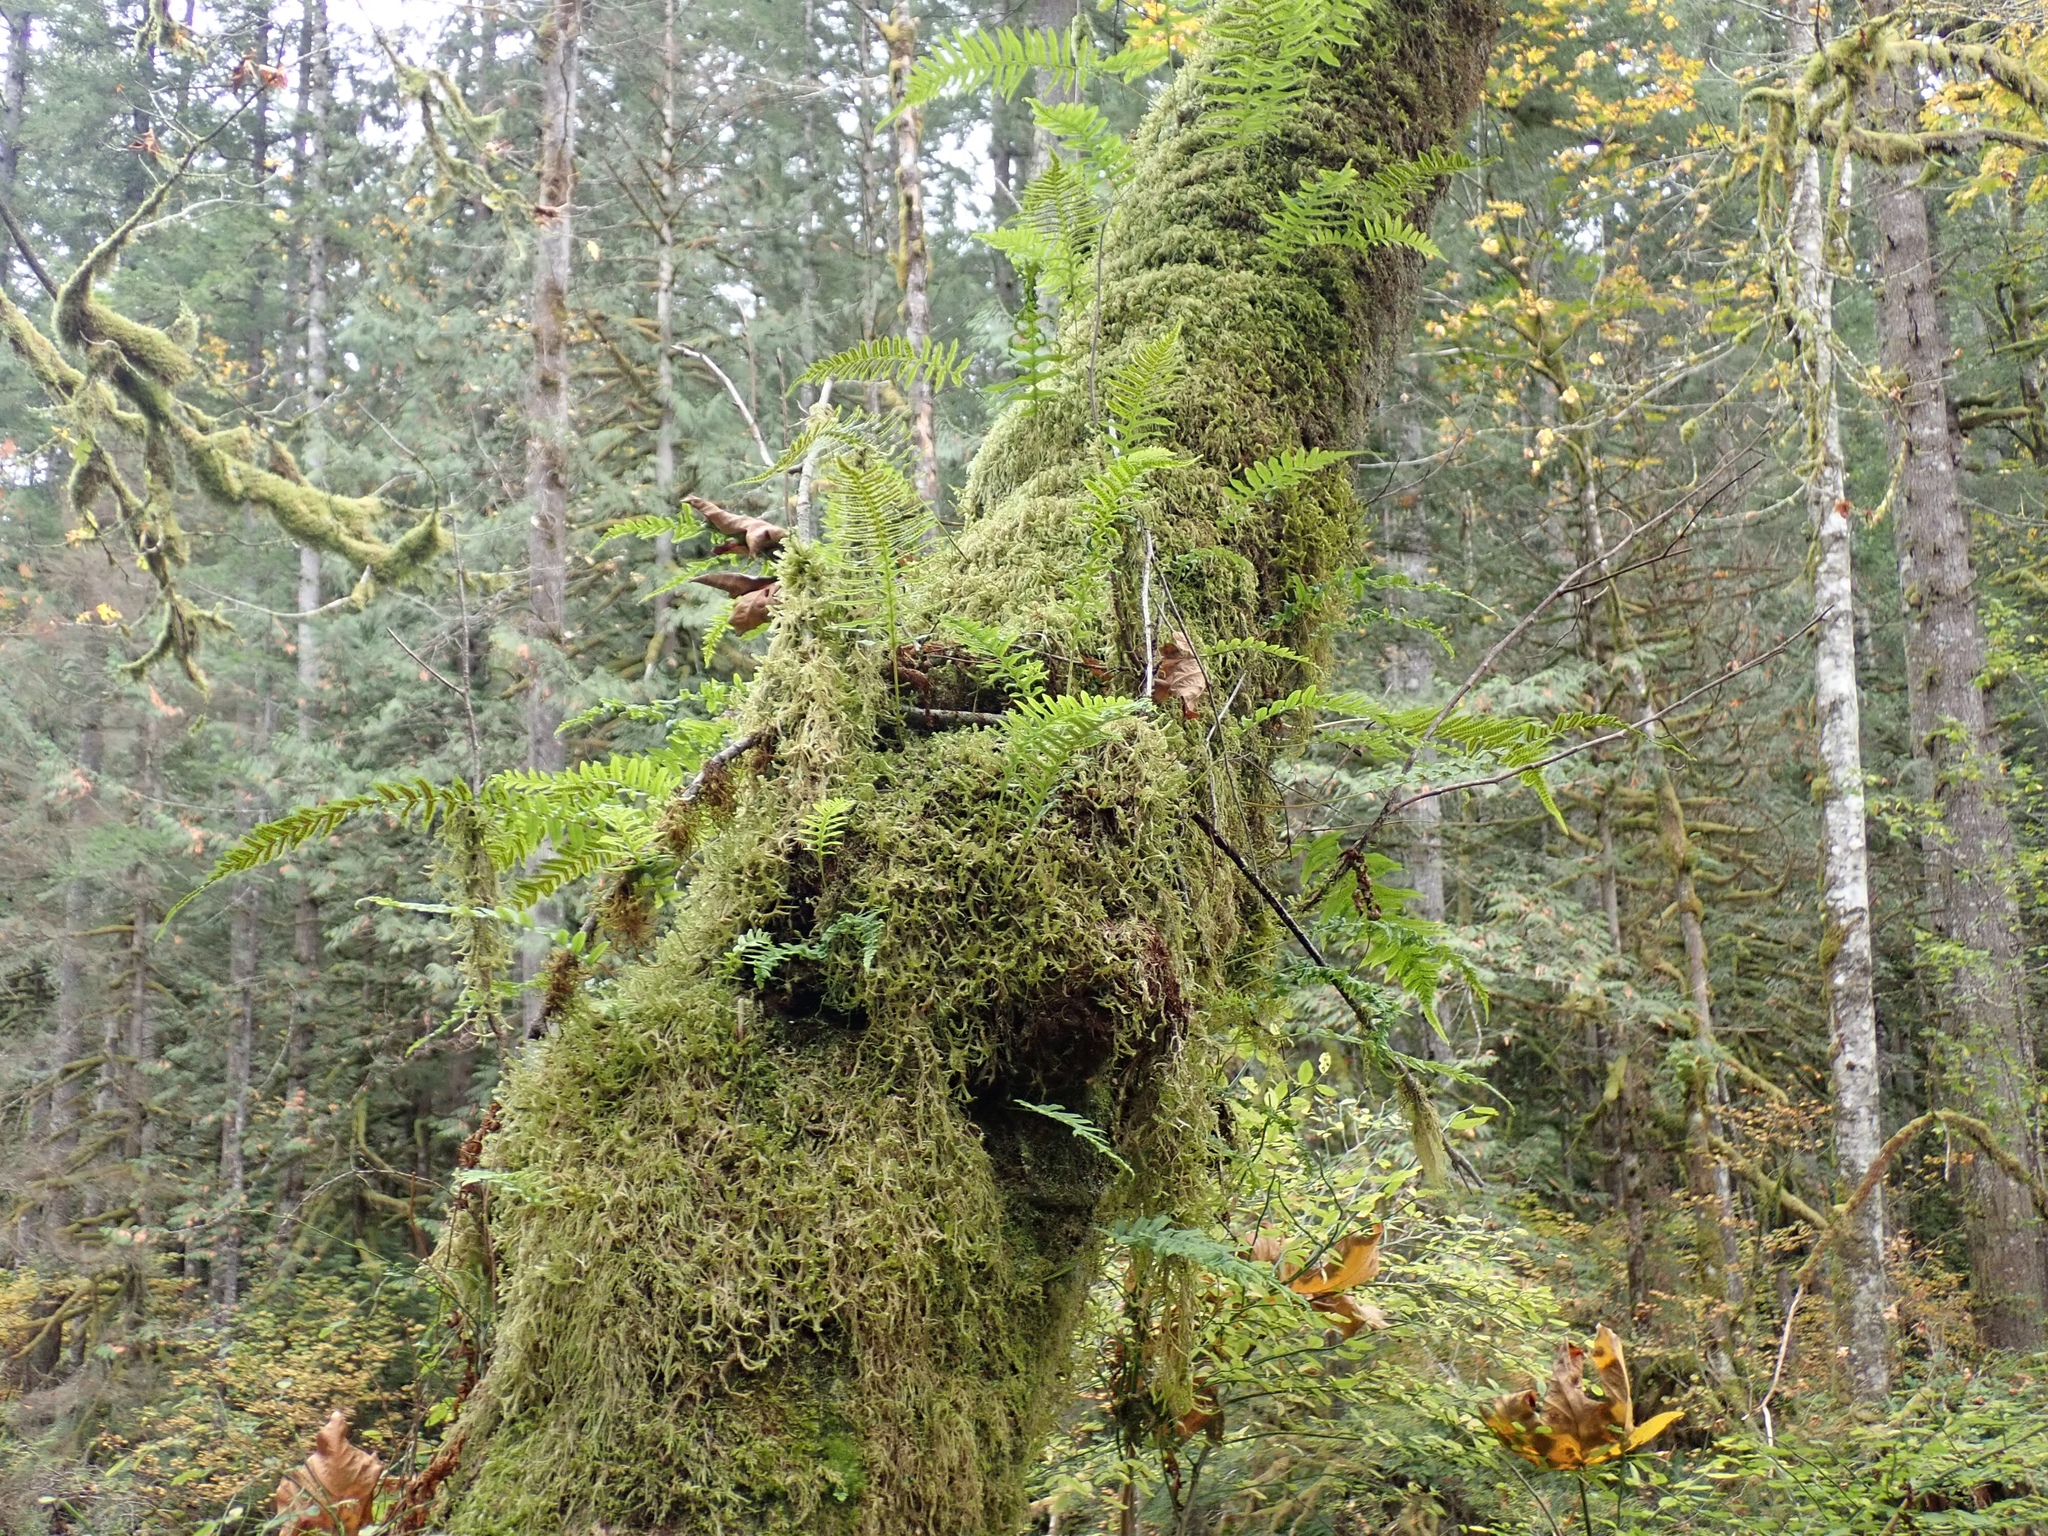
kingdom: Plantae
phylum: Tracheophyta
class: Polypodiopsida
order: Polypodiales
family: Polypodiaceae
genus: Polypodium
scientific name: Polypodium glycyrrhiza
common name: Licorice fern
